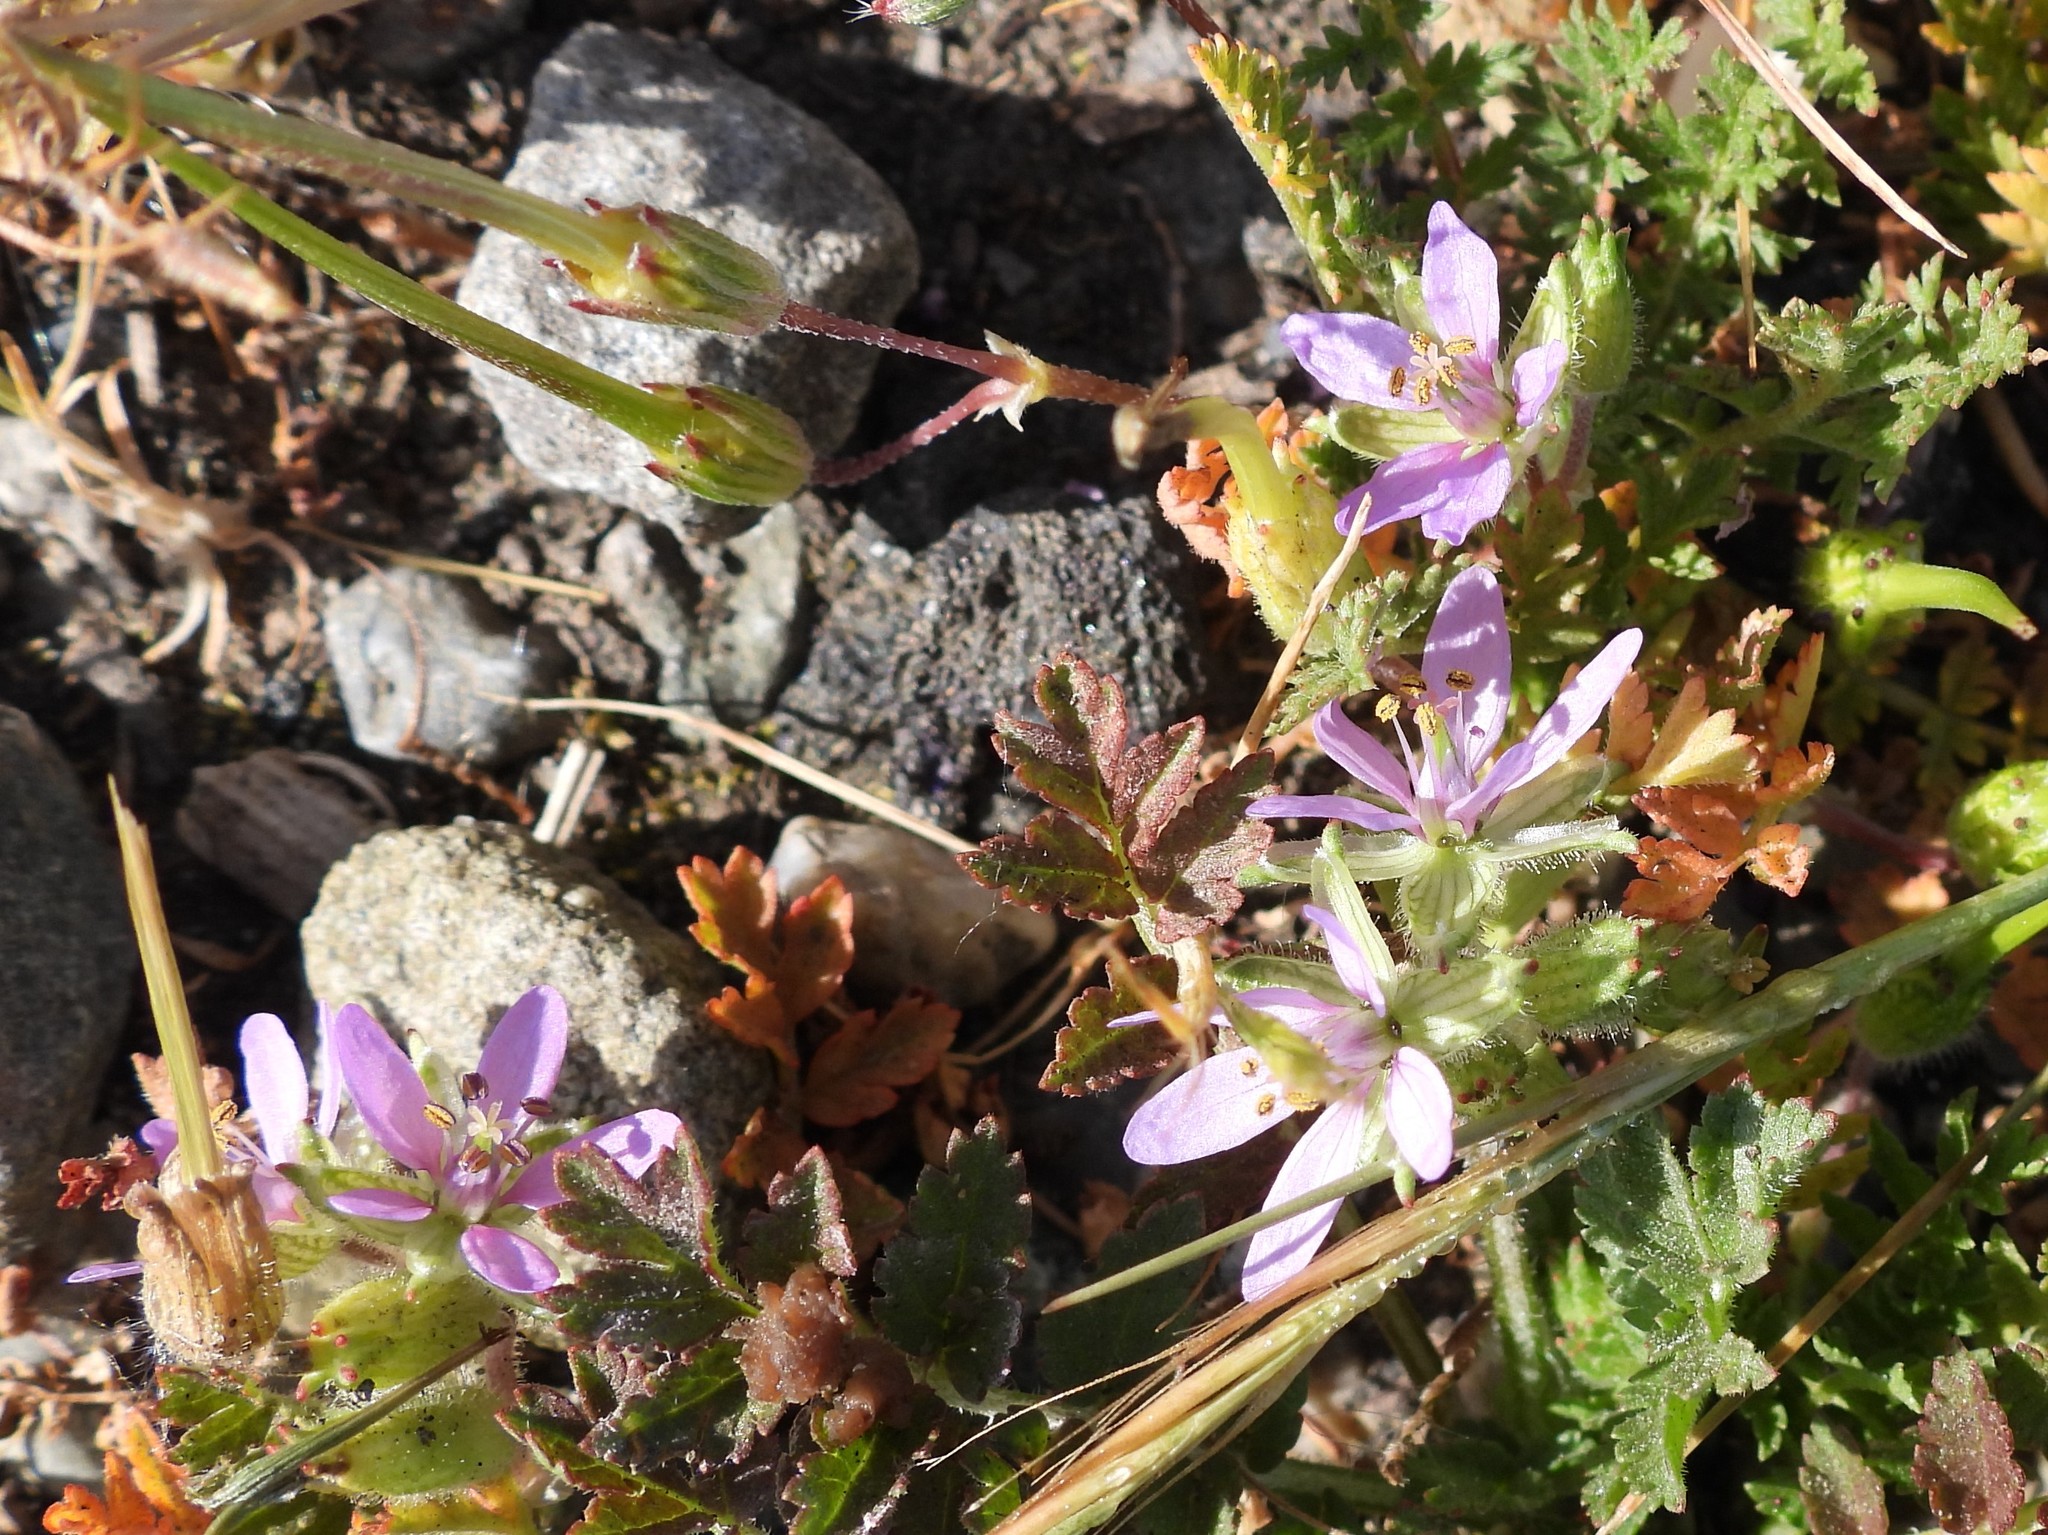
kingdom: Plantae
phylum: Tracheophyta
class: Magnoliopsida
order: Geraniales
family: Geraniaceae
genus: Erodium
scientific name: Erodium moschatum
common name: Musk stork's-bill
